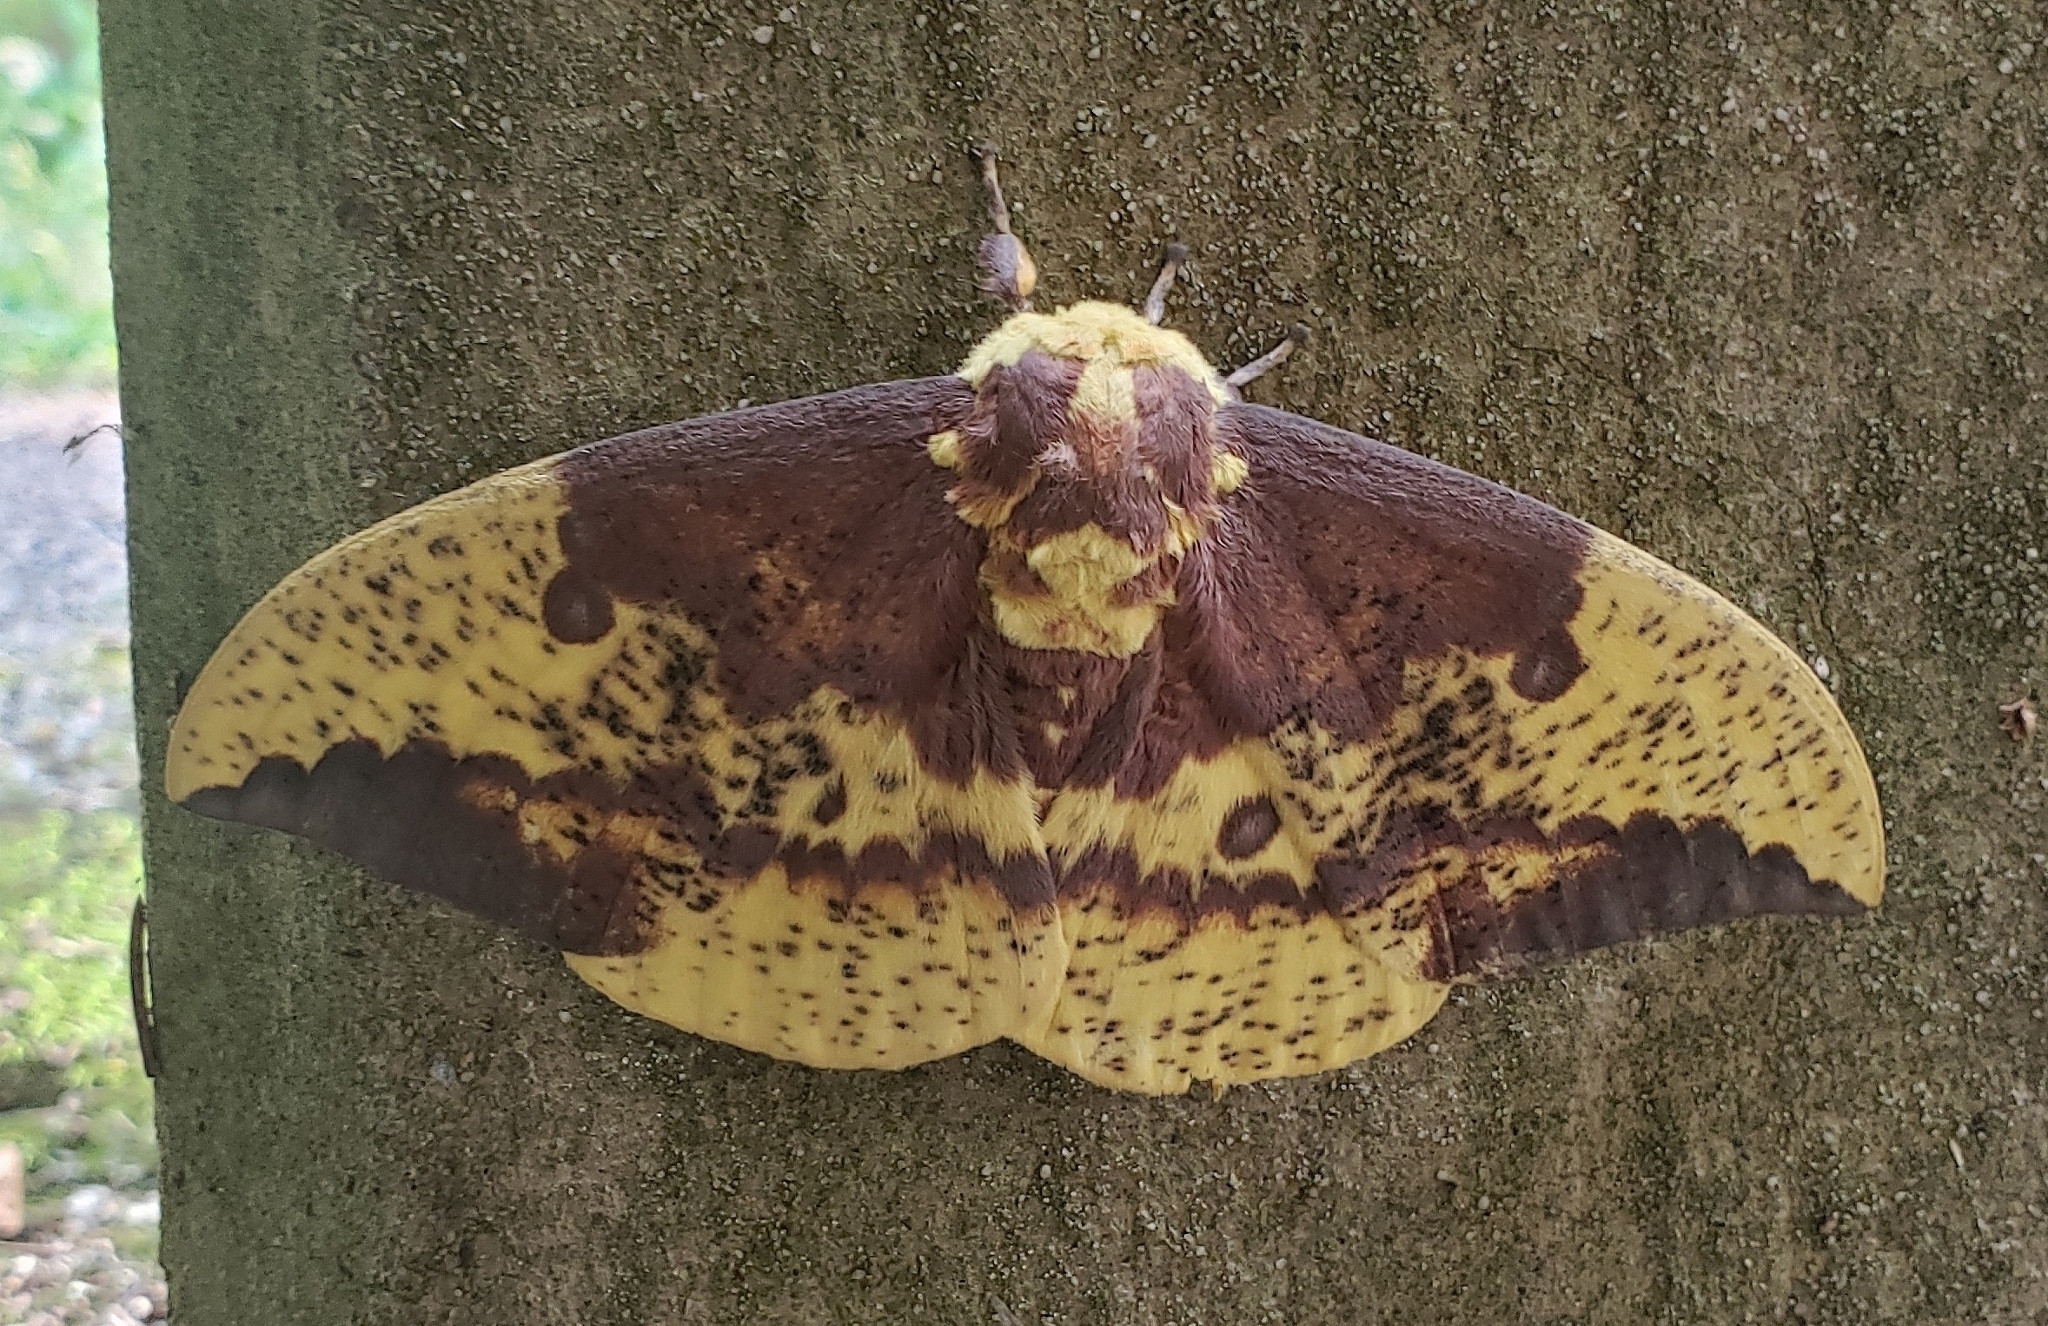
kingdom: Animalia
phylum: Arthropoda
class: Insecta
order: Lepidoptera
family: Saturniidae
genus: Eacles
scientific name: Eacles imperialis
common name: Imperial moth
